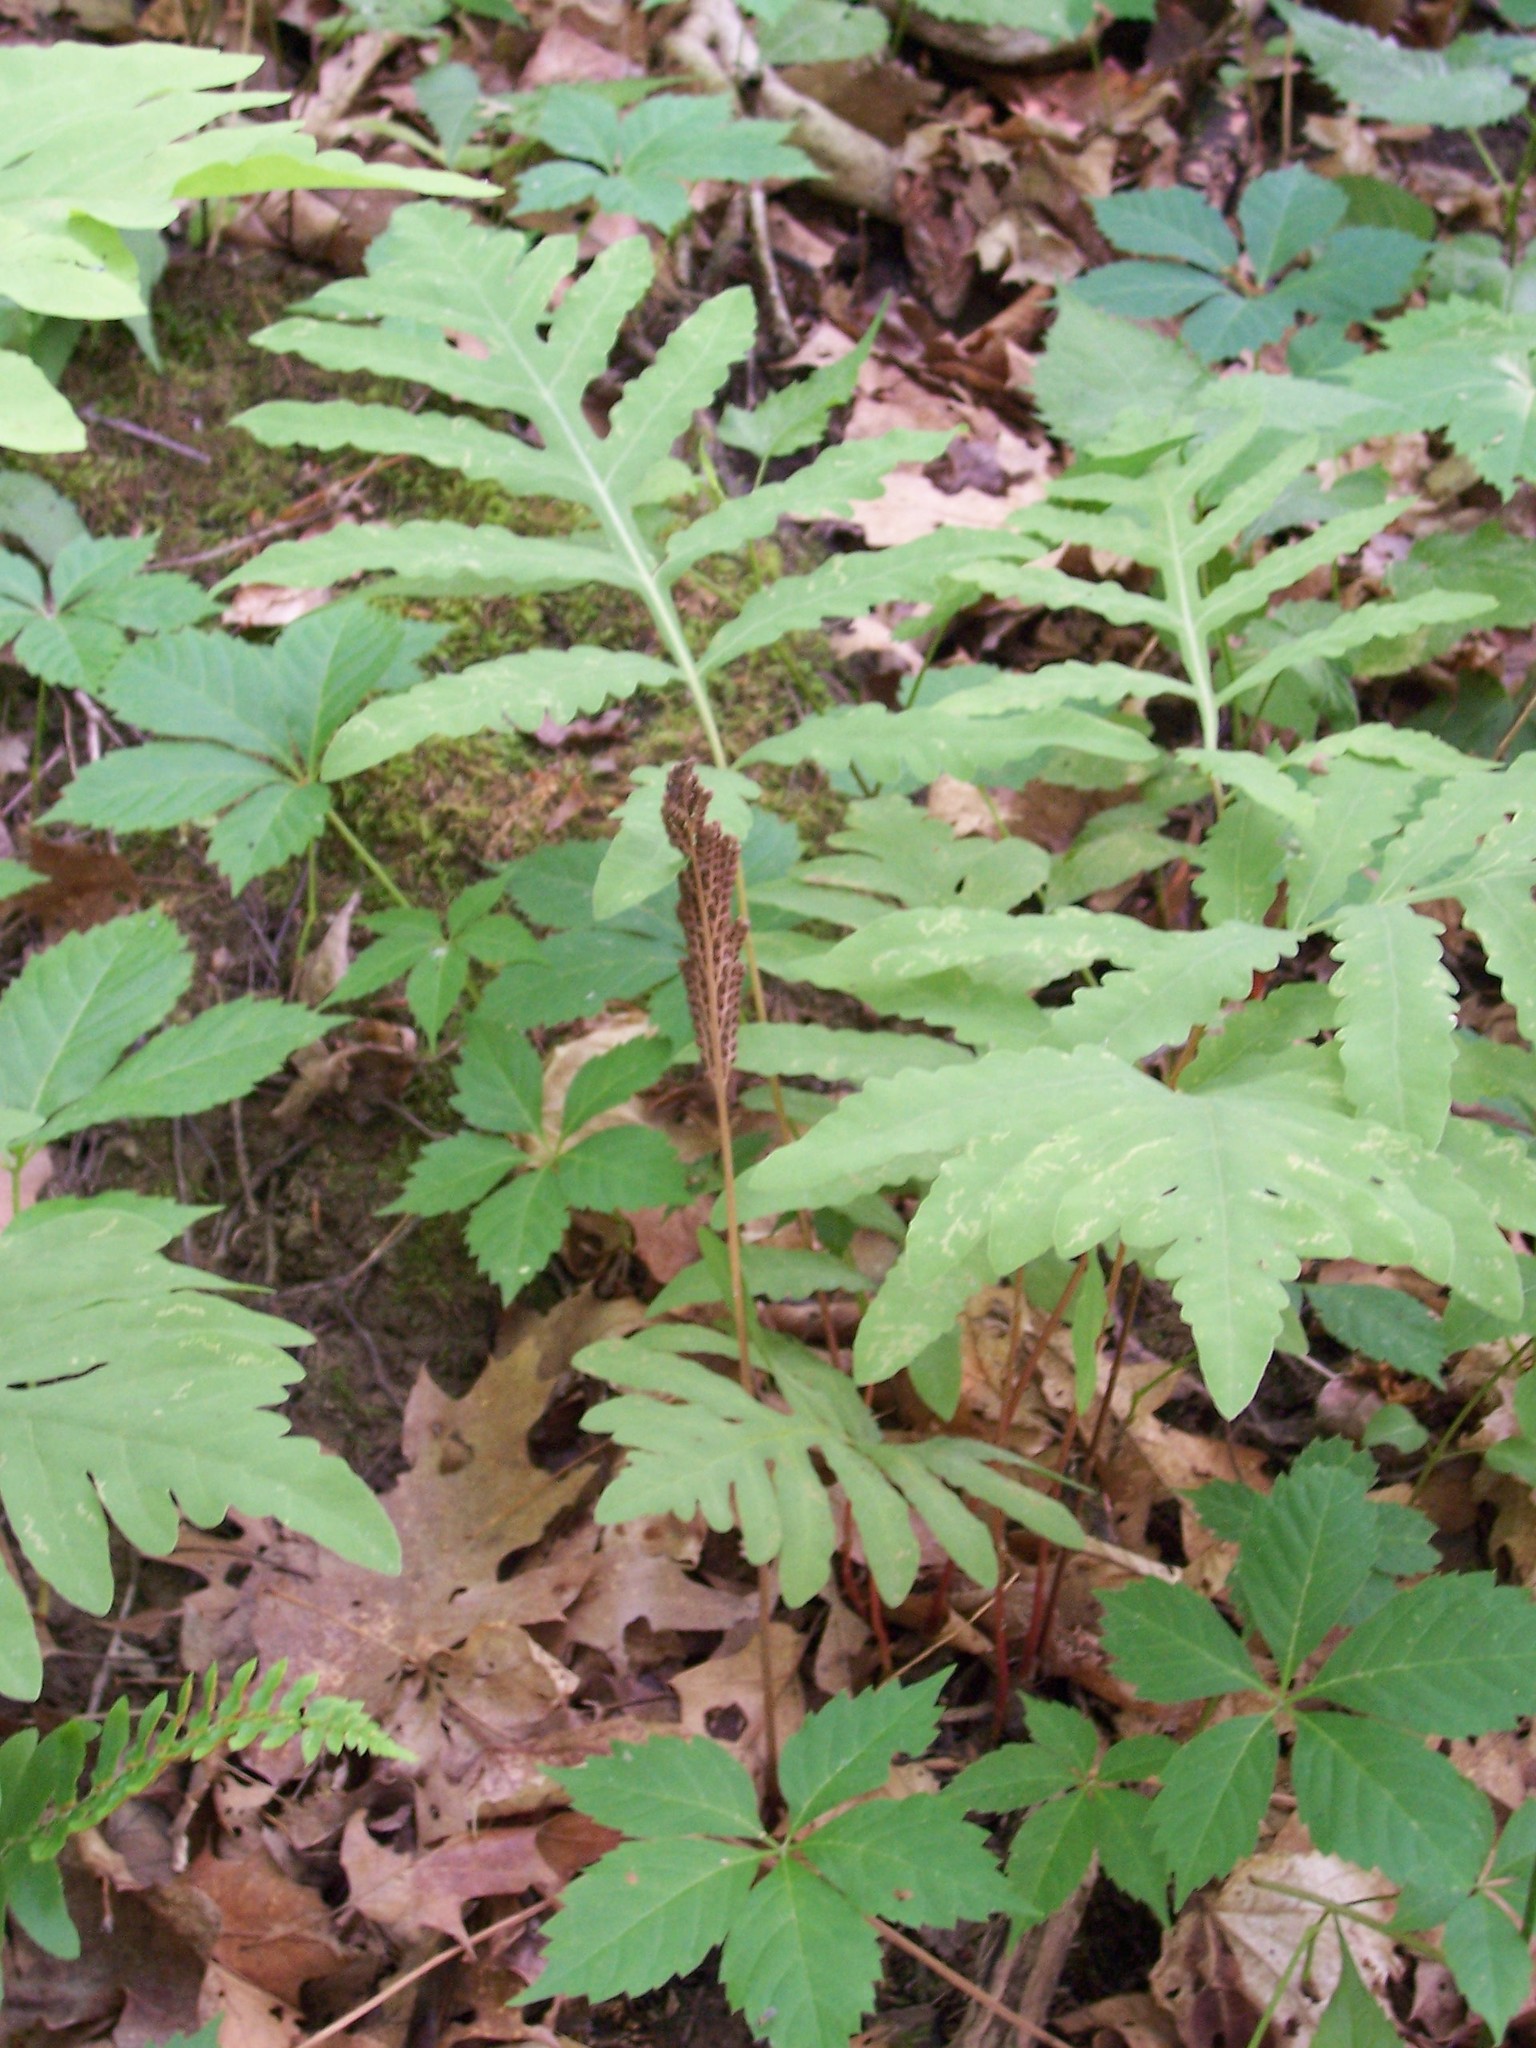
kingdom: Plantae
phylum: Tracheophyta
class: Polypodiopsida
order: Polypodiales
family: Onocleaceae
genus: Onoclea
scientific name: Onoclea sensibilis
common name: Sensitive fern
